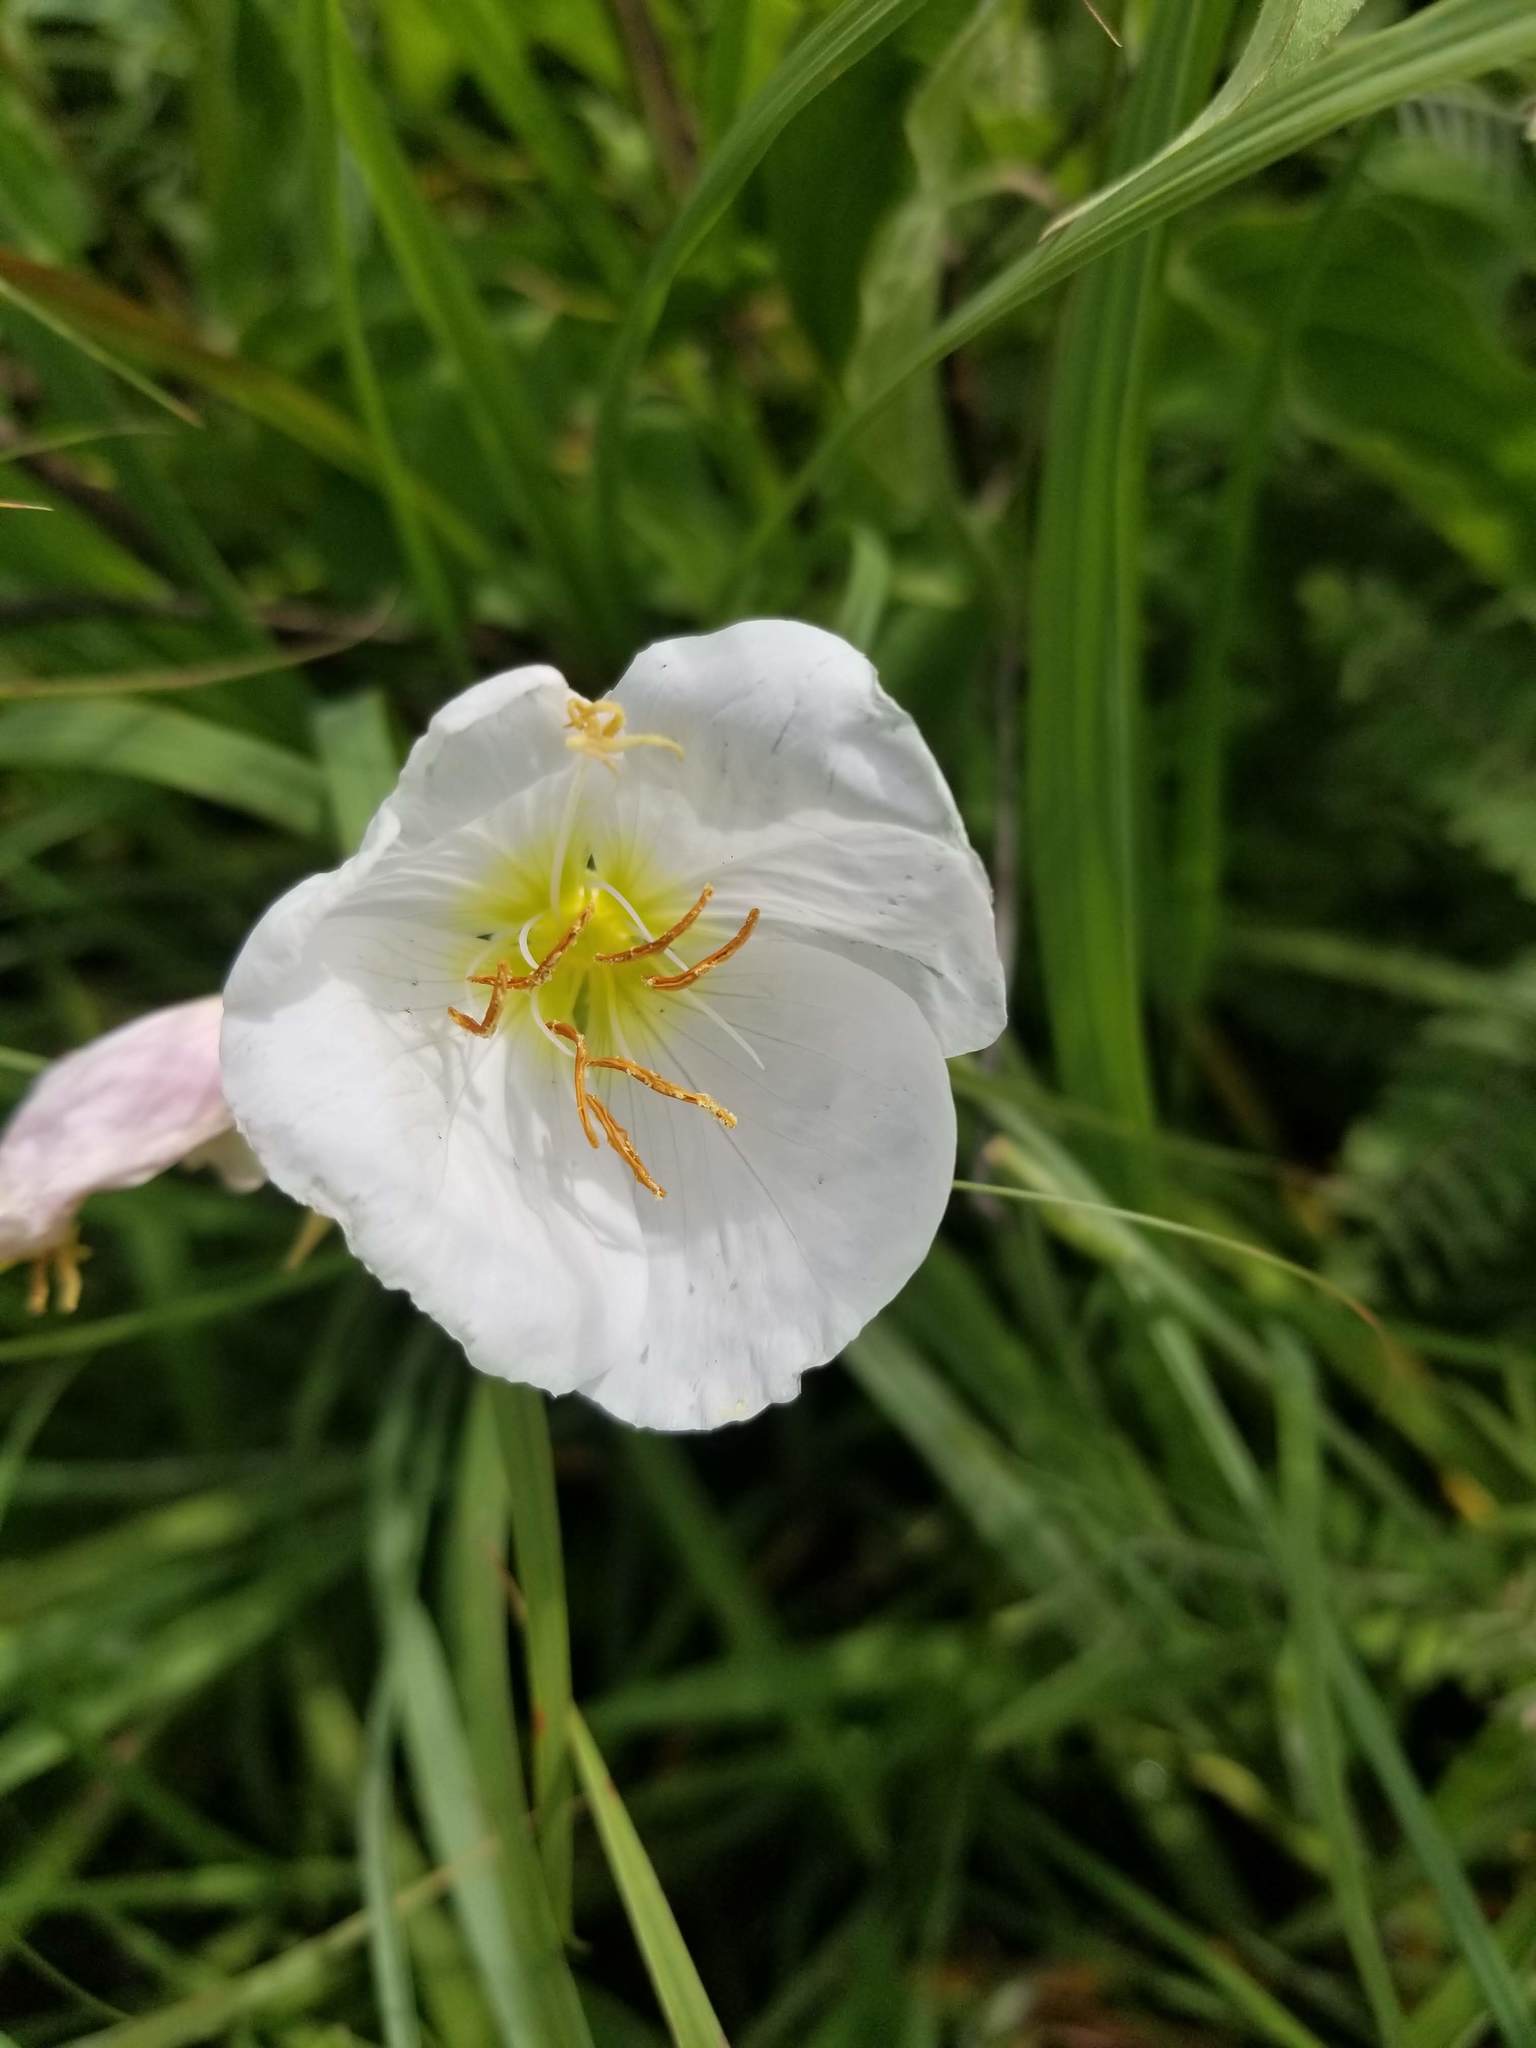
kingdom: Plantae
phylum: Tracheophyta
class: Magnoliopsida
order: Myrtales
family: Onagraceae
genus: Oenothera
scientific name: Oenothera speciosa
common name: White evening-primrose
